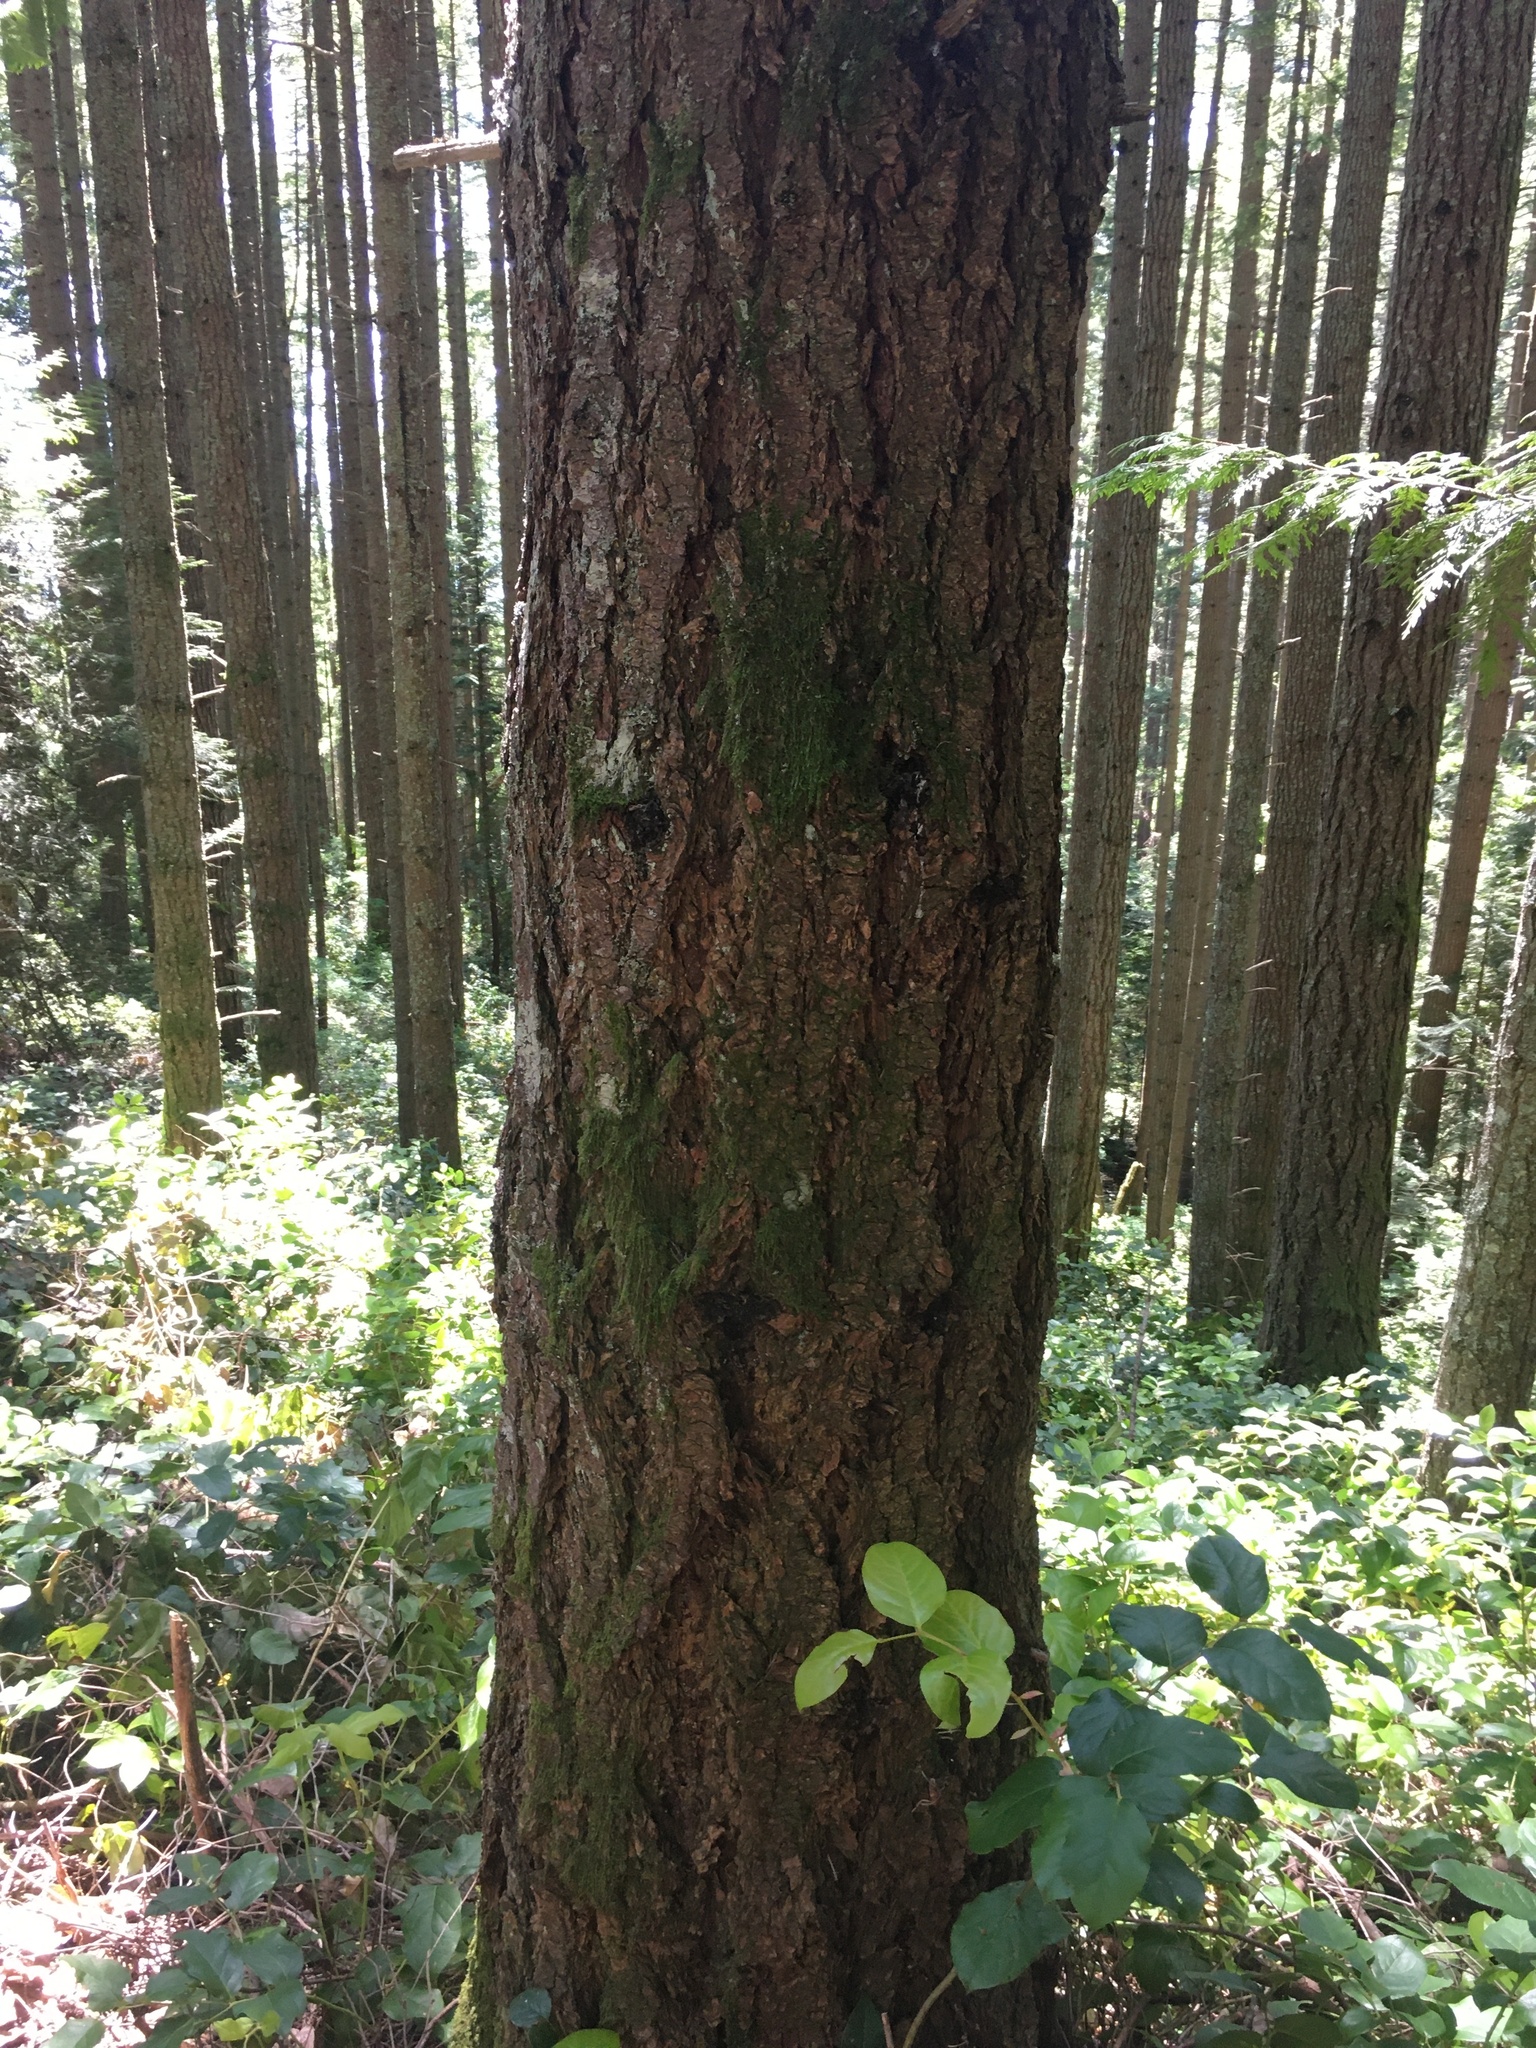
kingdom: Plantae
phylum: Tracheophyta
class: Pinopsida
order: Pinales
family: Pinaceae
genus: Pseudotsuga
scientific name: Pseudotsuga menziesii
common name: Douglas fir
